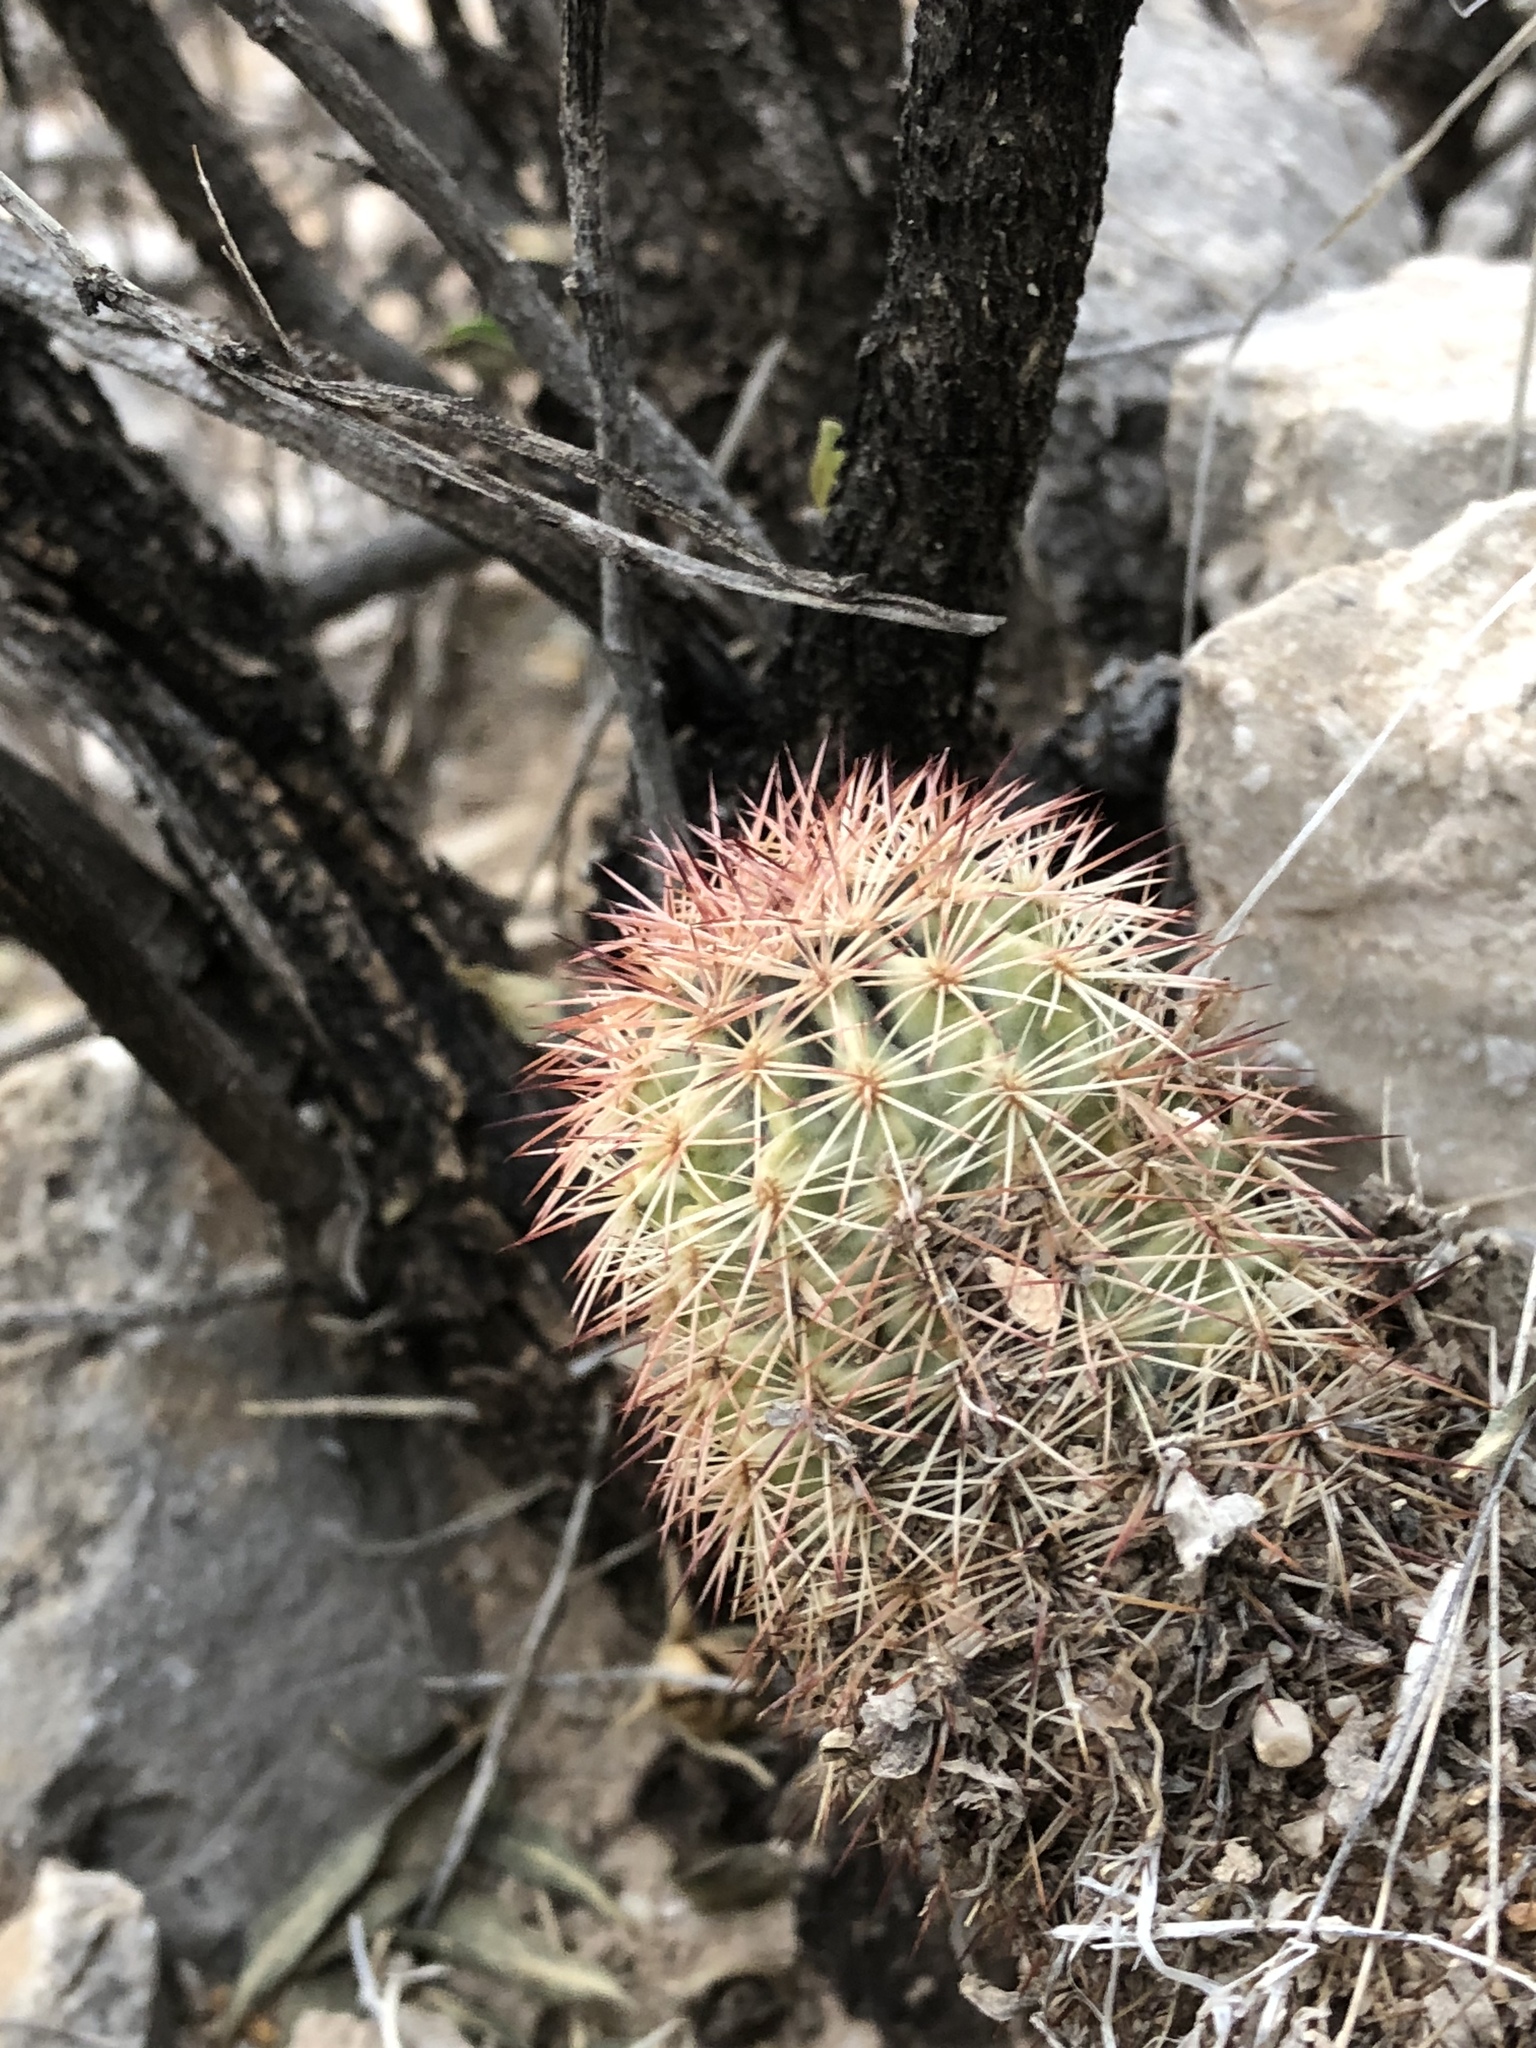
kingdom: Plantae
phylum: Tracheophyta
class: Magnoliopsida
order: Caryophyllales
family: Cactaceae
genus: Echinocereus
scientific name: Echinocereus roetteri
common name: Lloyd's hedgehog cactus
